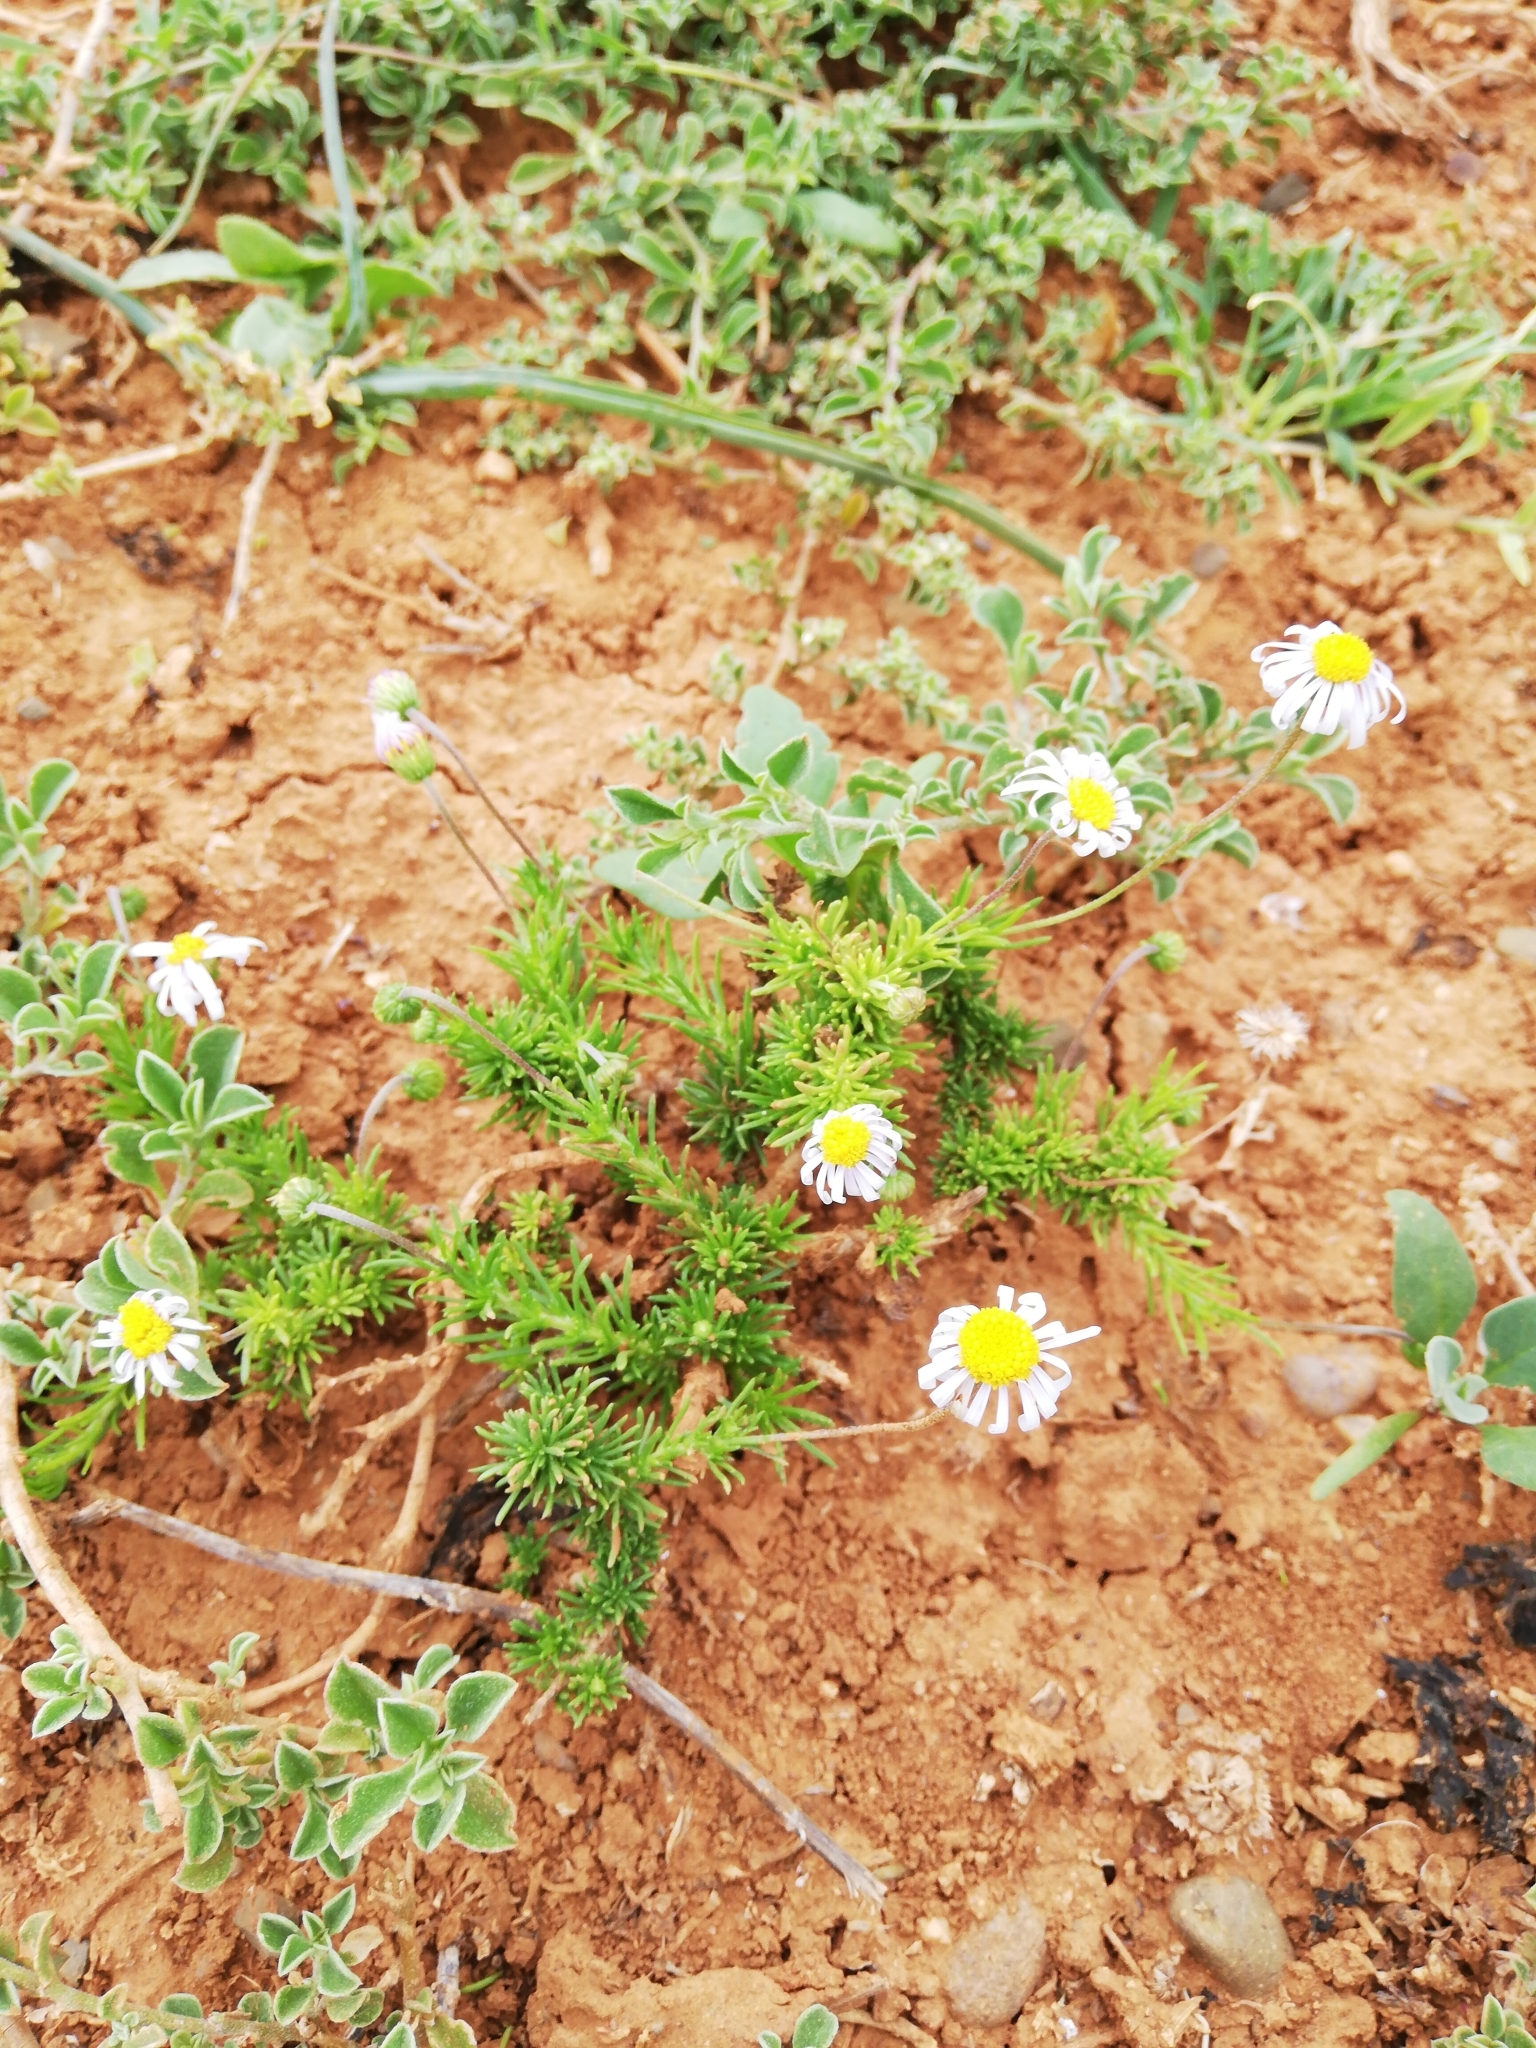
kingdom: Plantae
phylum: Tracheophyta
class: Magnoliopsida
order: Asterales
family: Asteraceae
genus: Felicia
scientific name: Felicia muricata
